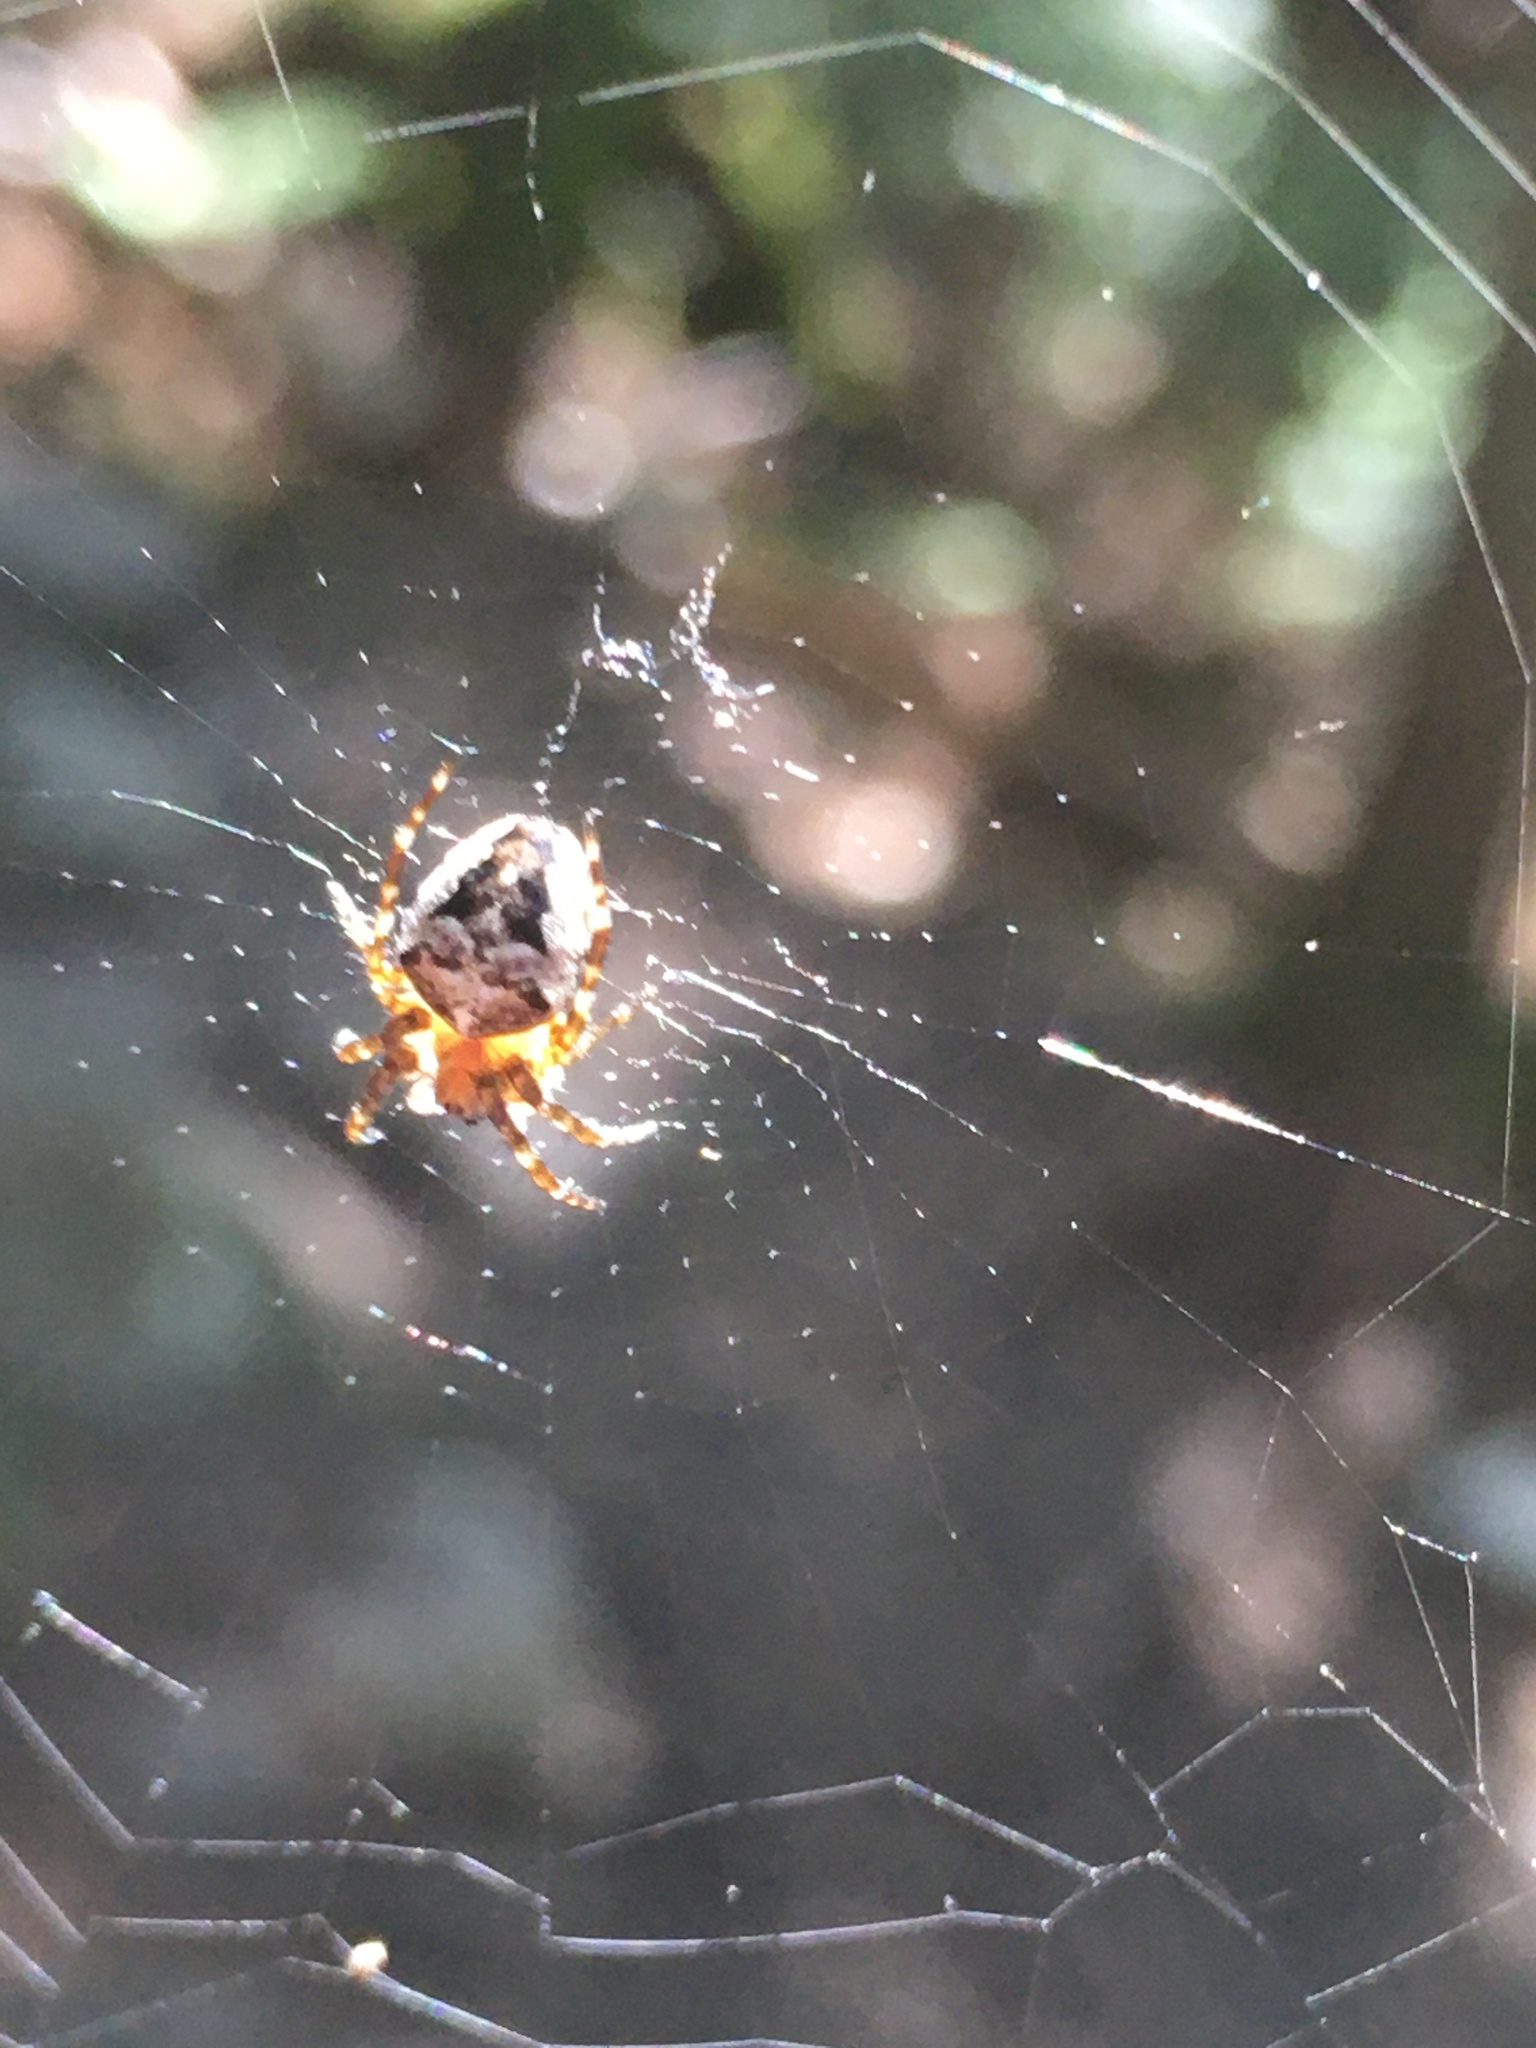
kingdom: Animalia
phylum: Arthropoda
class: Arachnida
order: Araneae
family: Araneidae
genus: Araneus
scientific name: Araneus nordmanni
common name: Nordmann's orbweaver
